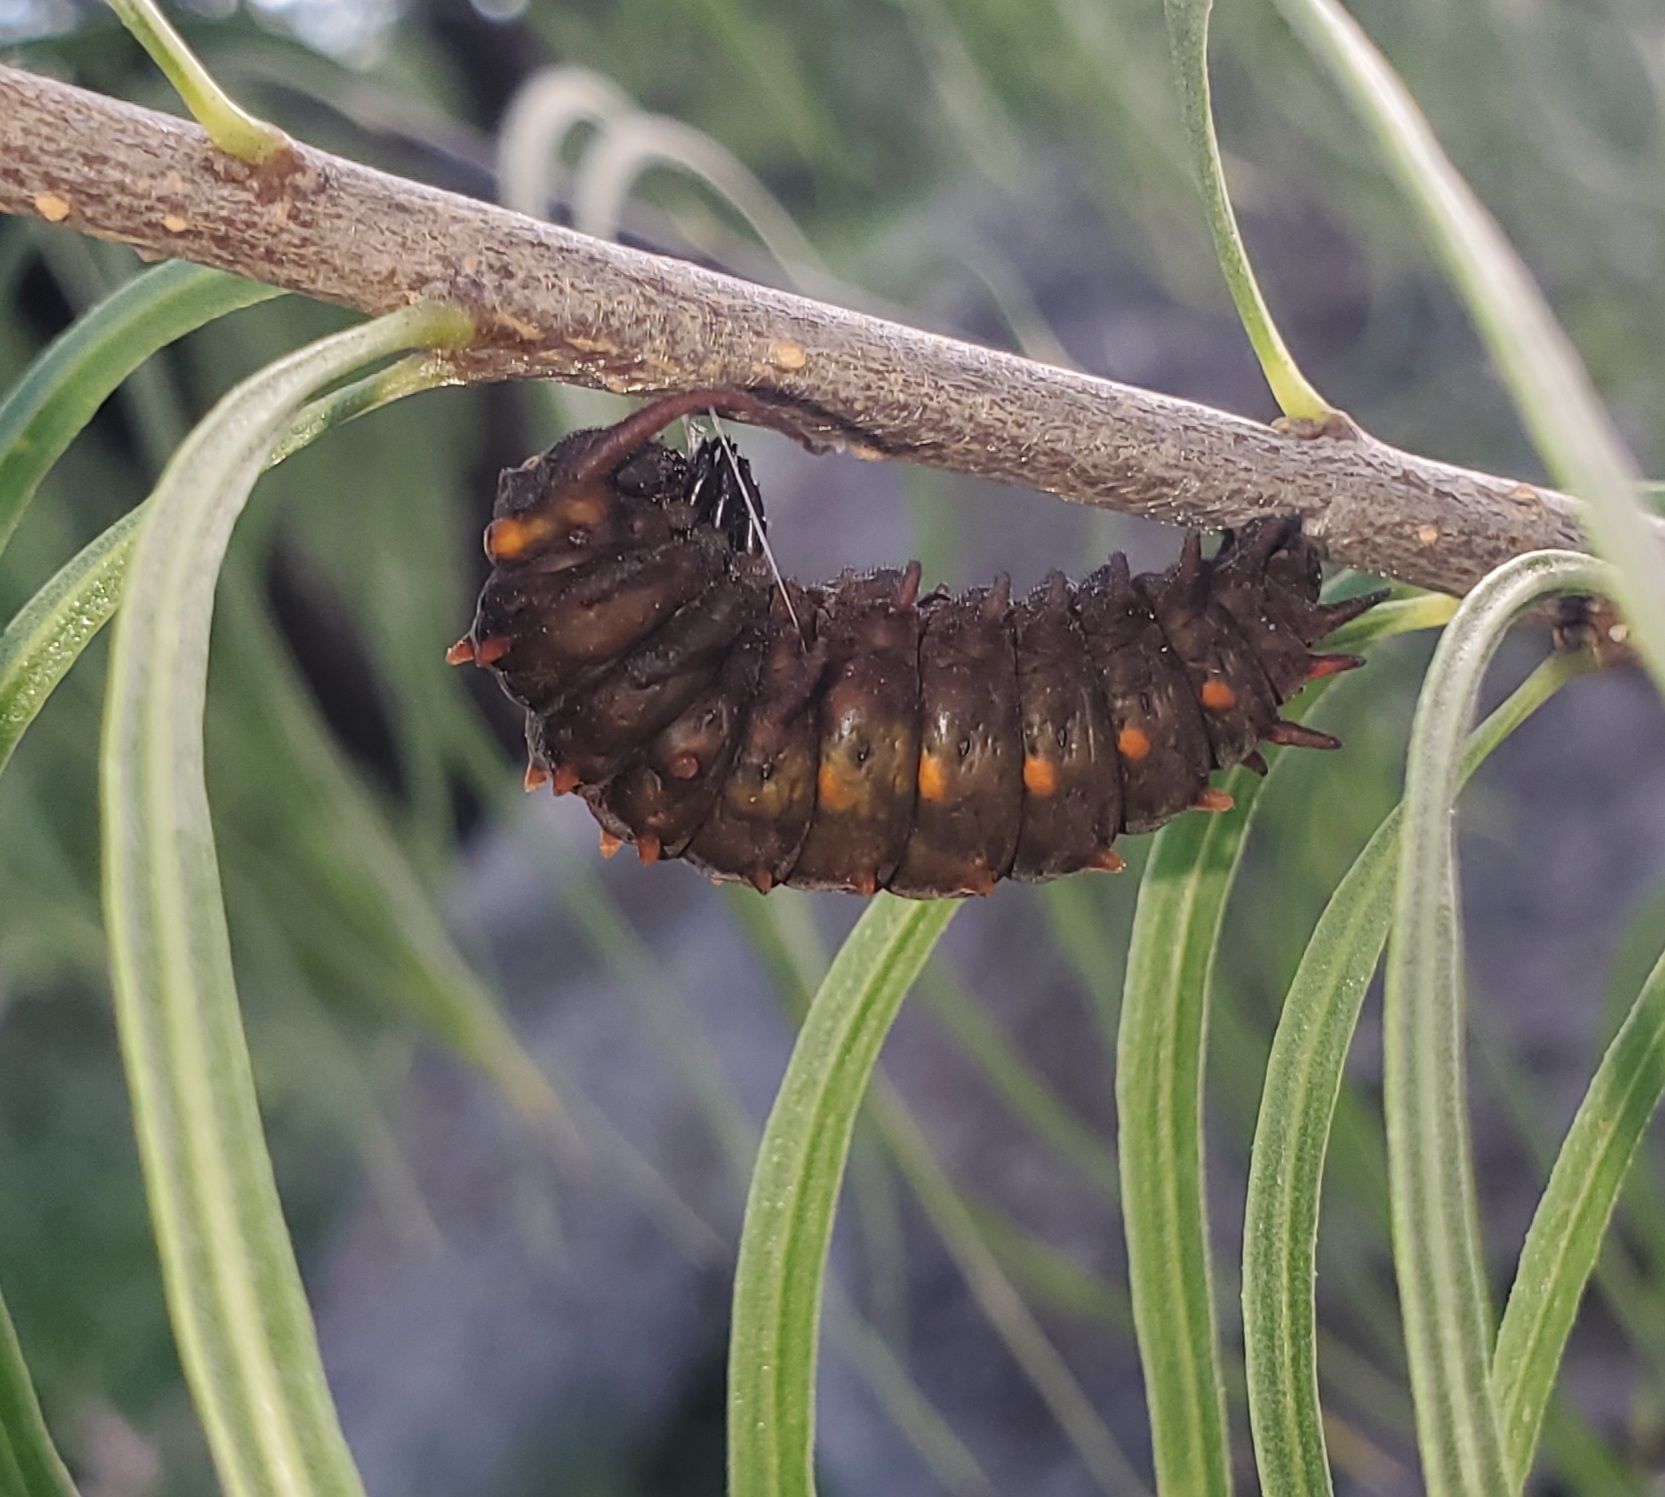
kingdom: Animalia
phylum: Arthropoda
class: Insecta
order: Lepidoptera
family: Papilionidae
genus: Battus
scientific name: Battus philenor
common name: Pipevine swallowtail
